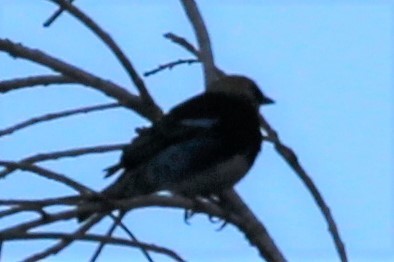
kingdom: Animalia
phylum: Chordata
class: Aves
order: Passeriformes
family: Thraupidae
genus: Stilpnia
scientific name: Stilpnia larvata
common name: Golden-hooded tanager
